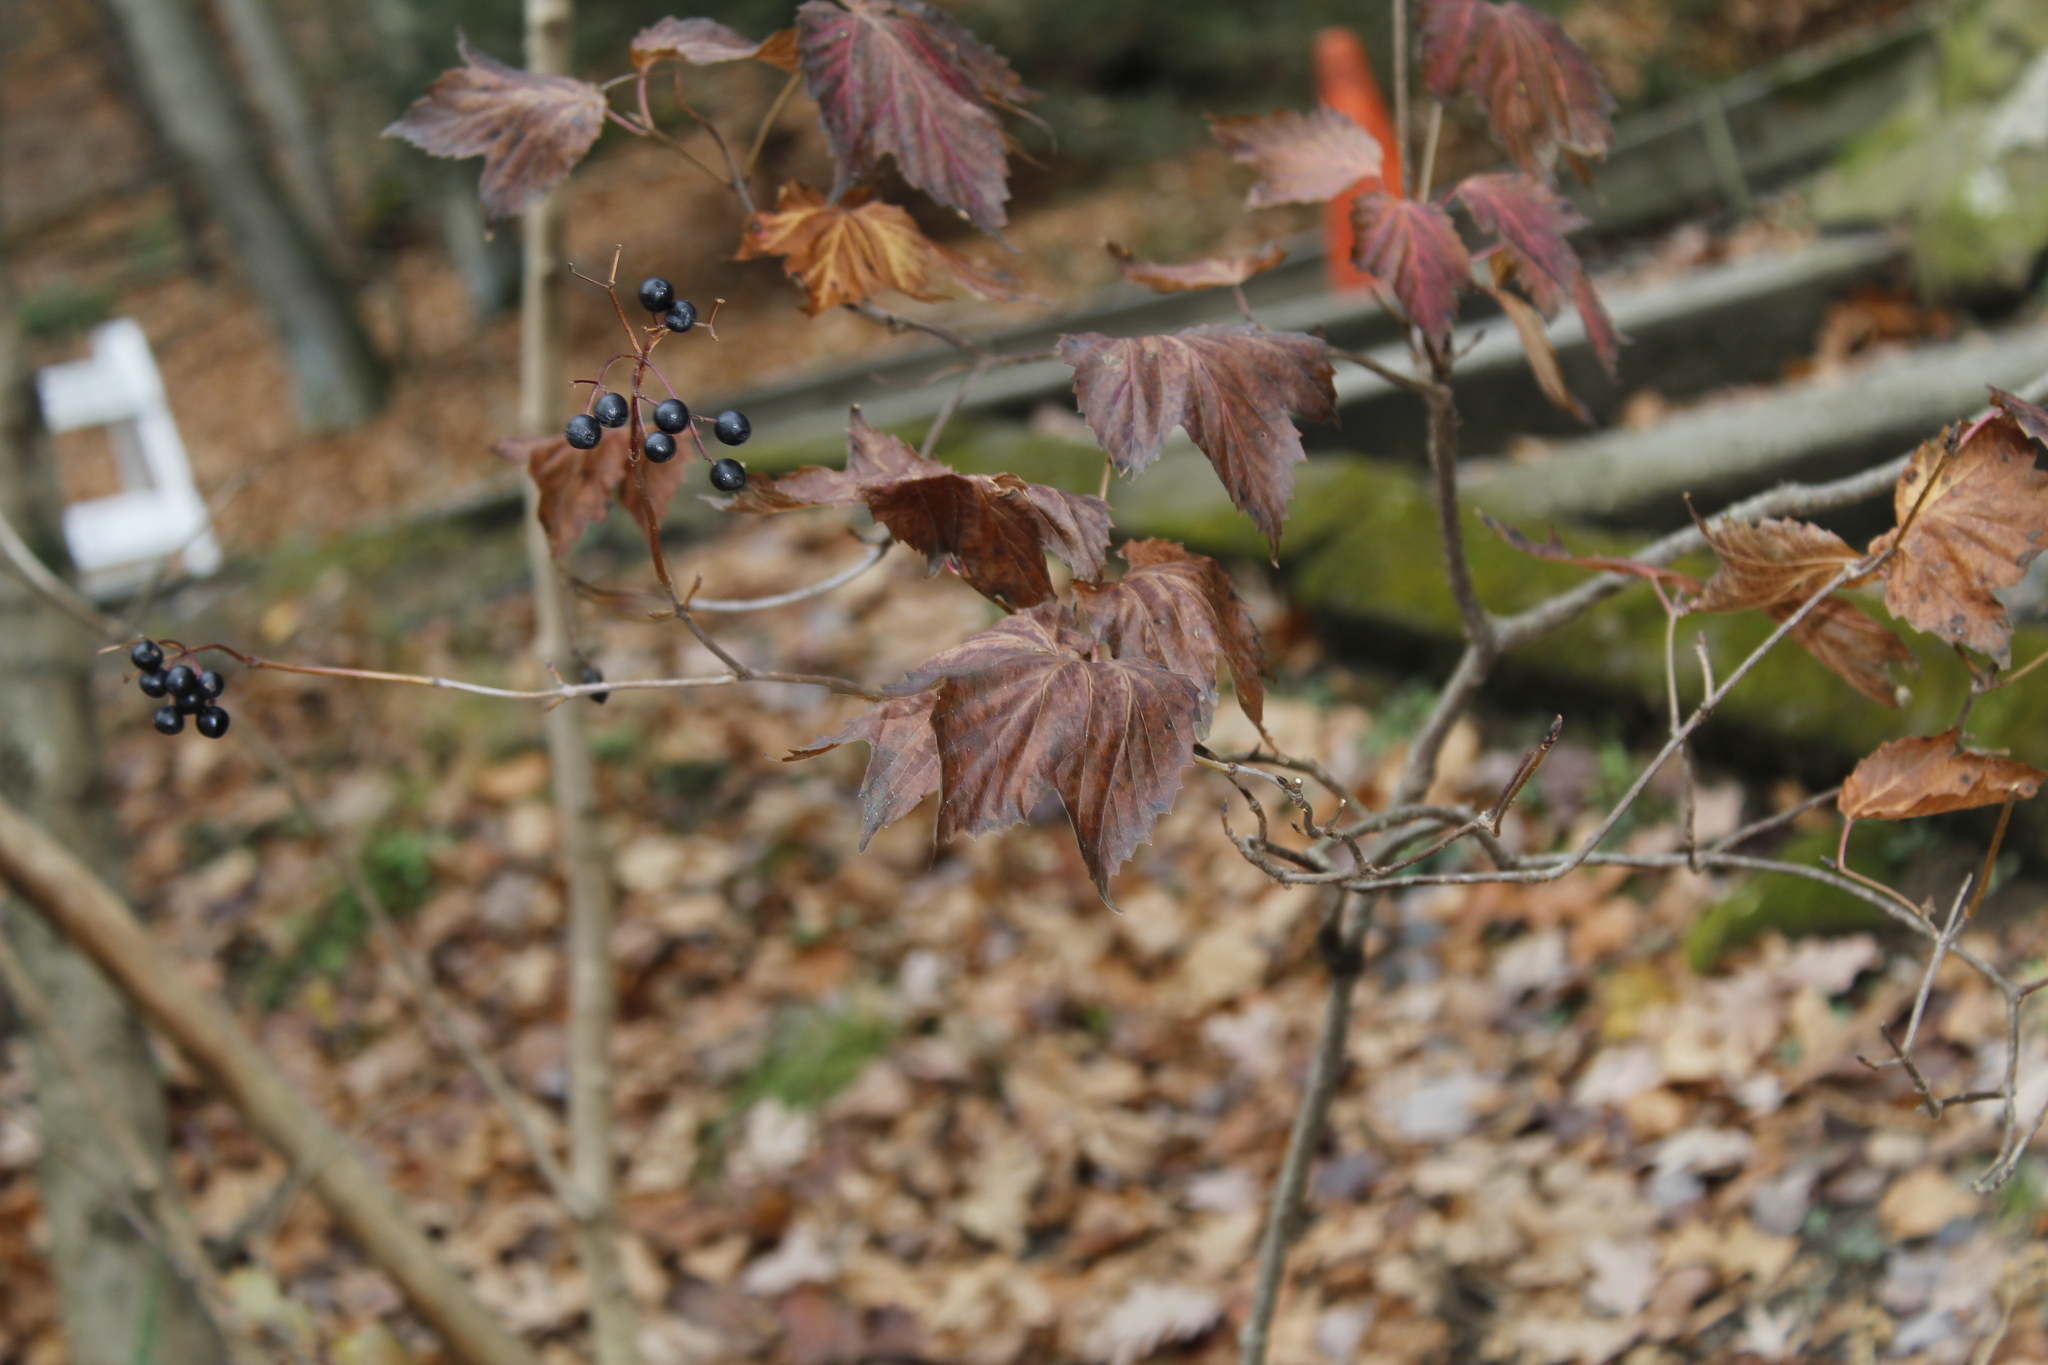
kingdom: Plantae
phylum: Tracheophyta
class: Magnoliopsida
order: Dipsacales
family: Viburnaceae
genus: Viburnum
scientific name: Viburnum acerifolium
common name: Dockmackie
